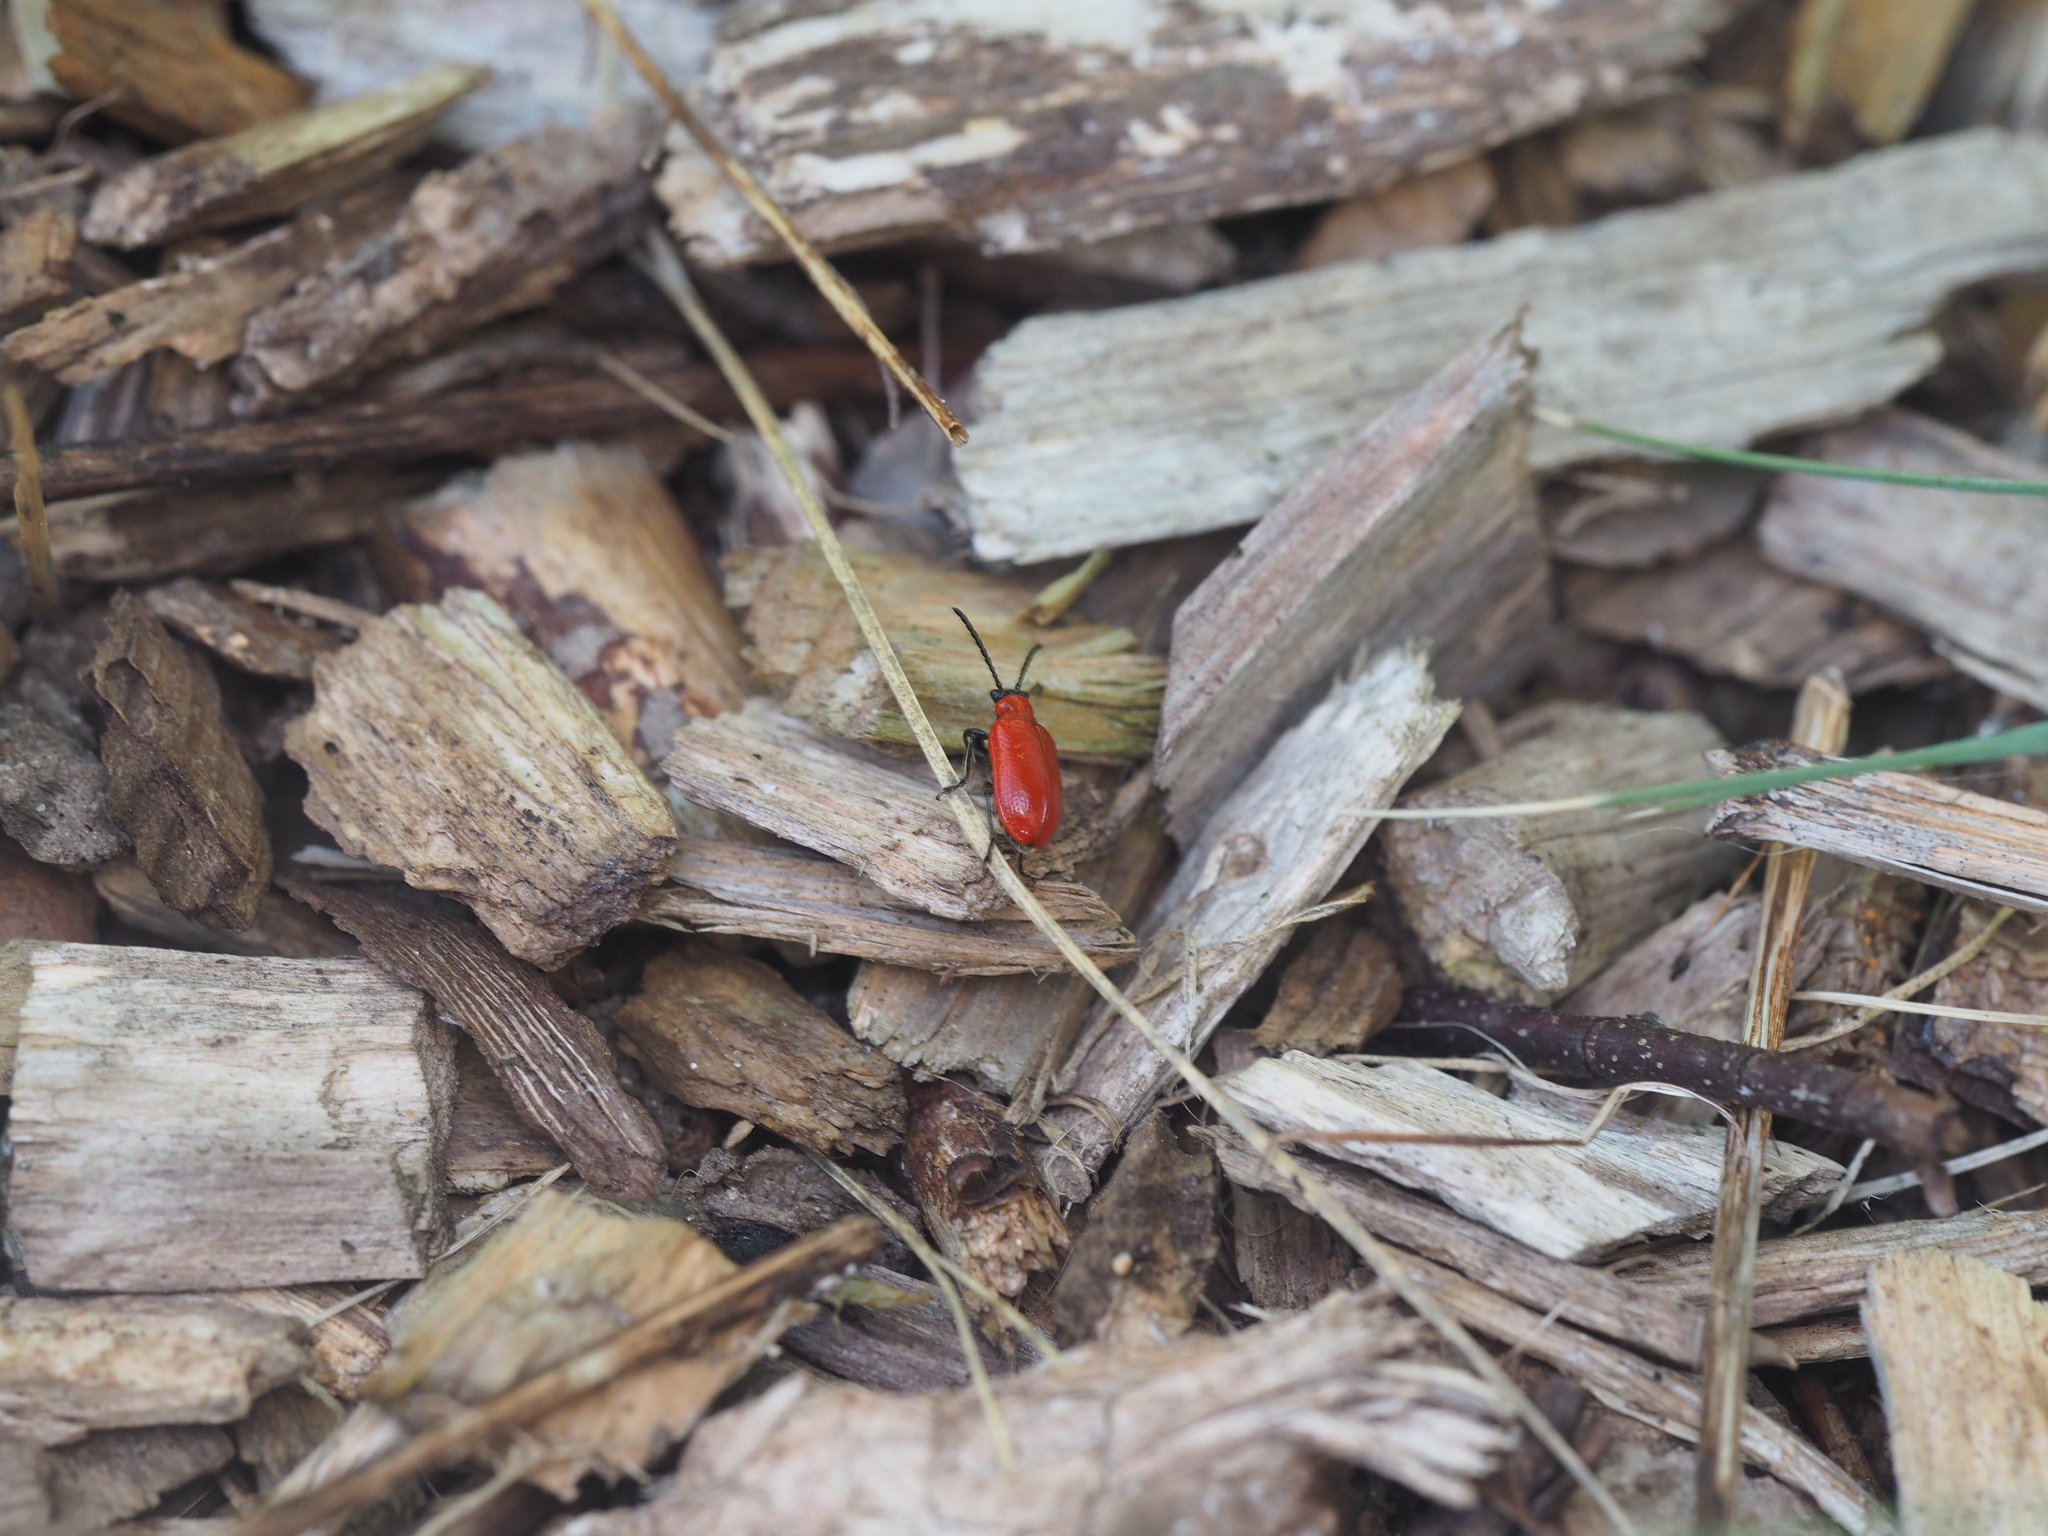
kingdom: Animalia
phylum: Arthropoda
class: Insecta
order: Coleoptera
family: Chrysomelidae
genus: Lilioceris
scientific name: Lilioceris lilii
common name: Lily beetle
